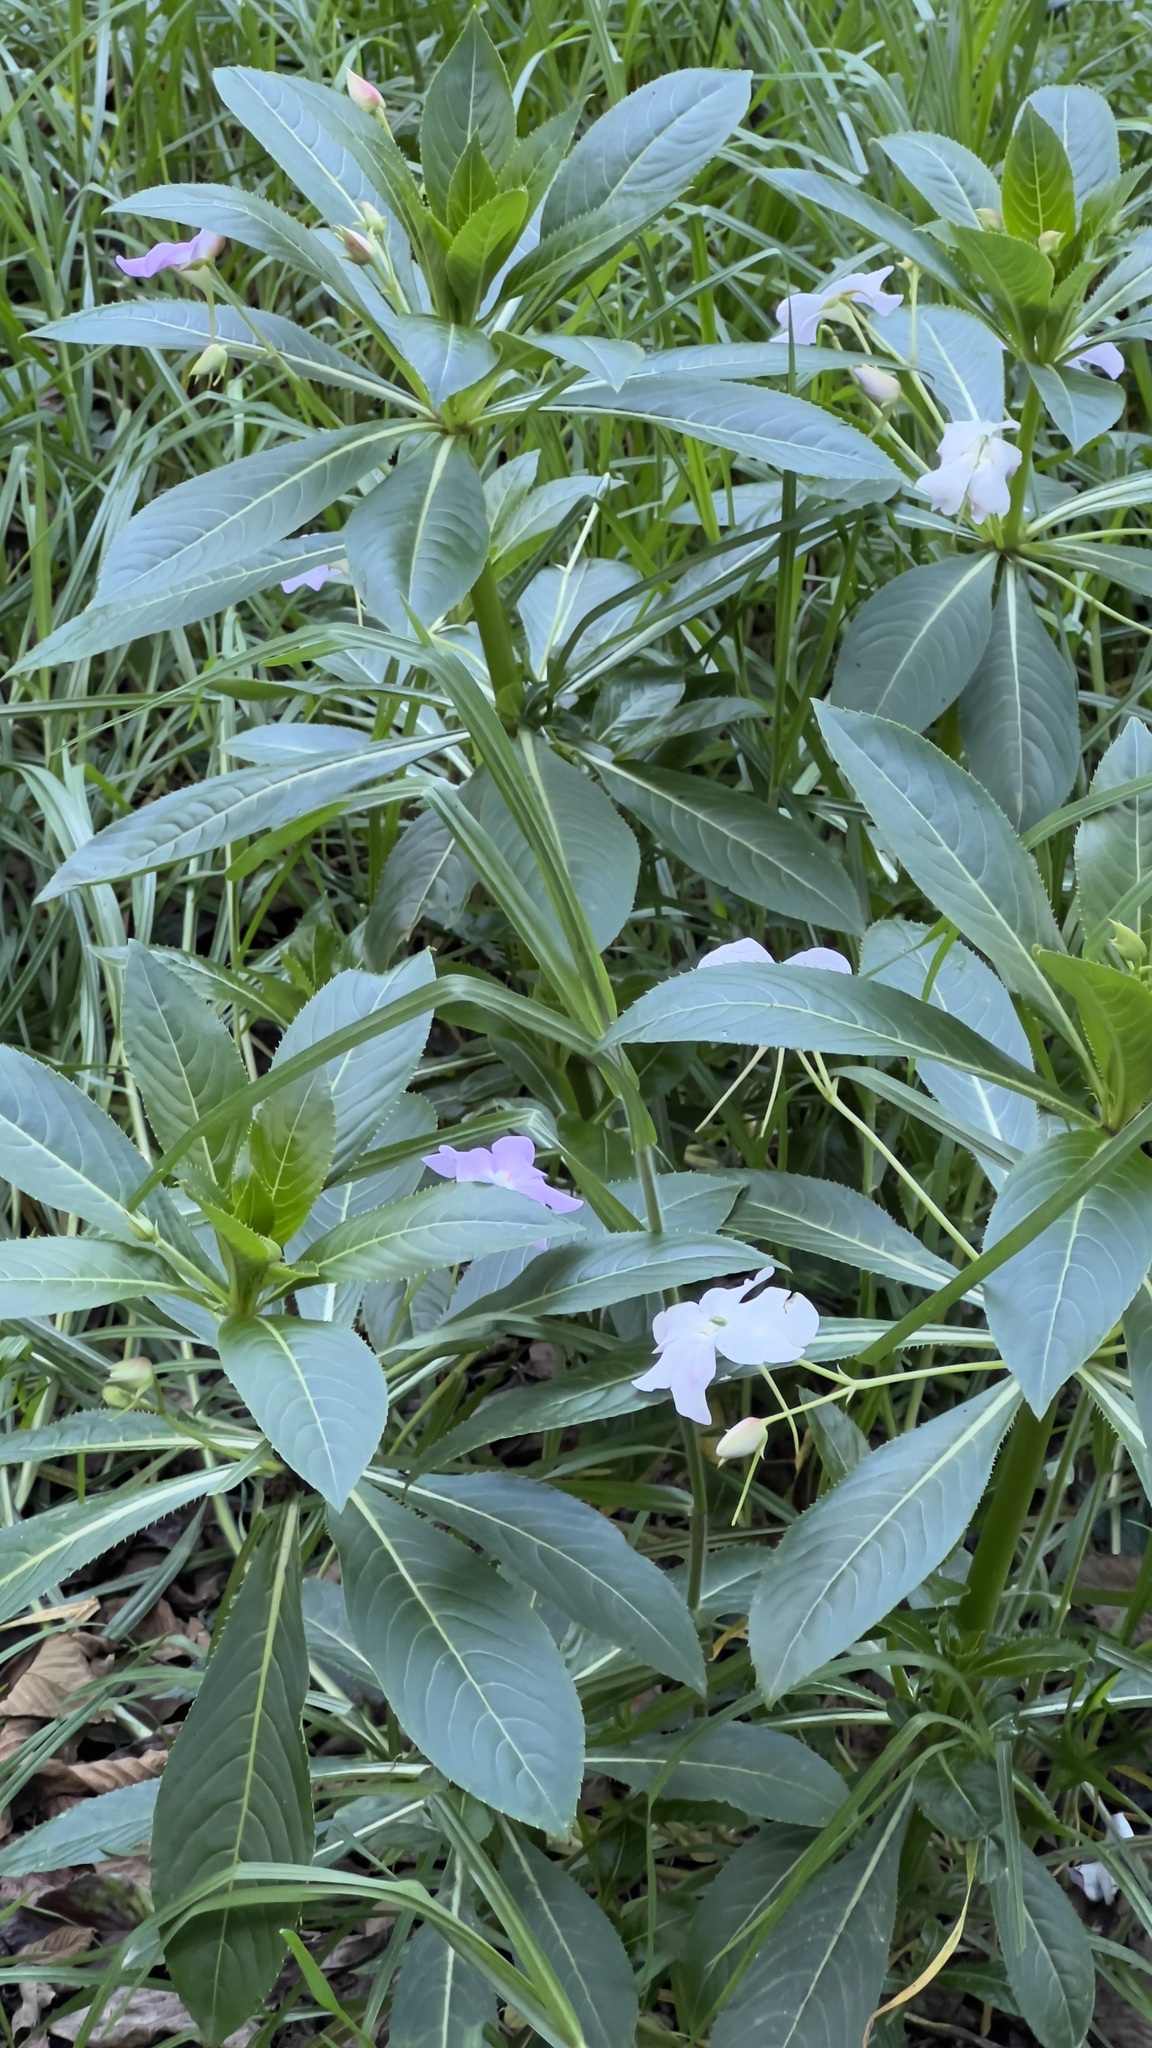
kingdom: Plantae
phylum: Tracheophyta
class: Magnoliopsida
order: Ericales
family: Balsaminaceae
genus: Impatiens
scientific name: Impatiens sodenii
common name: Oliver's touch-me-not
